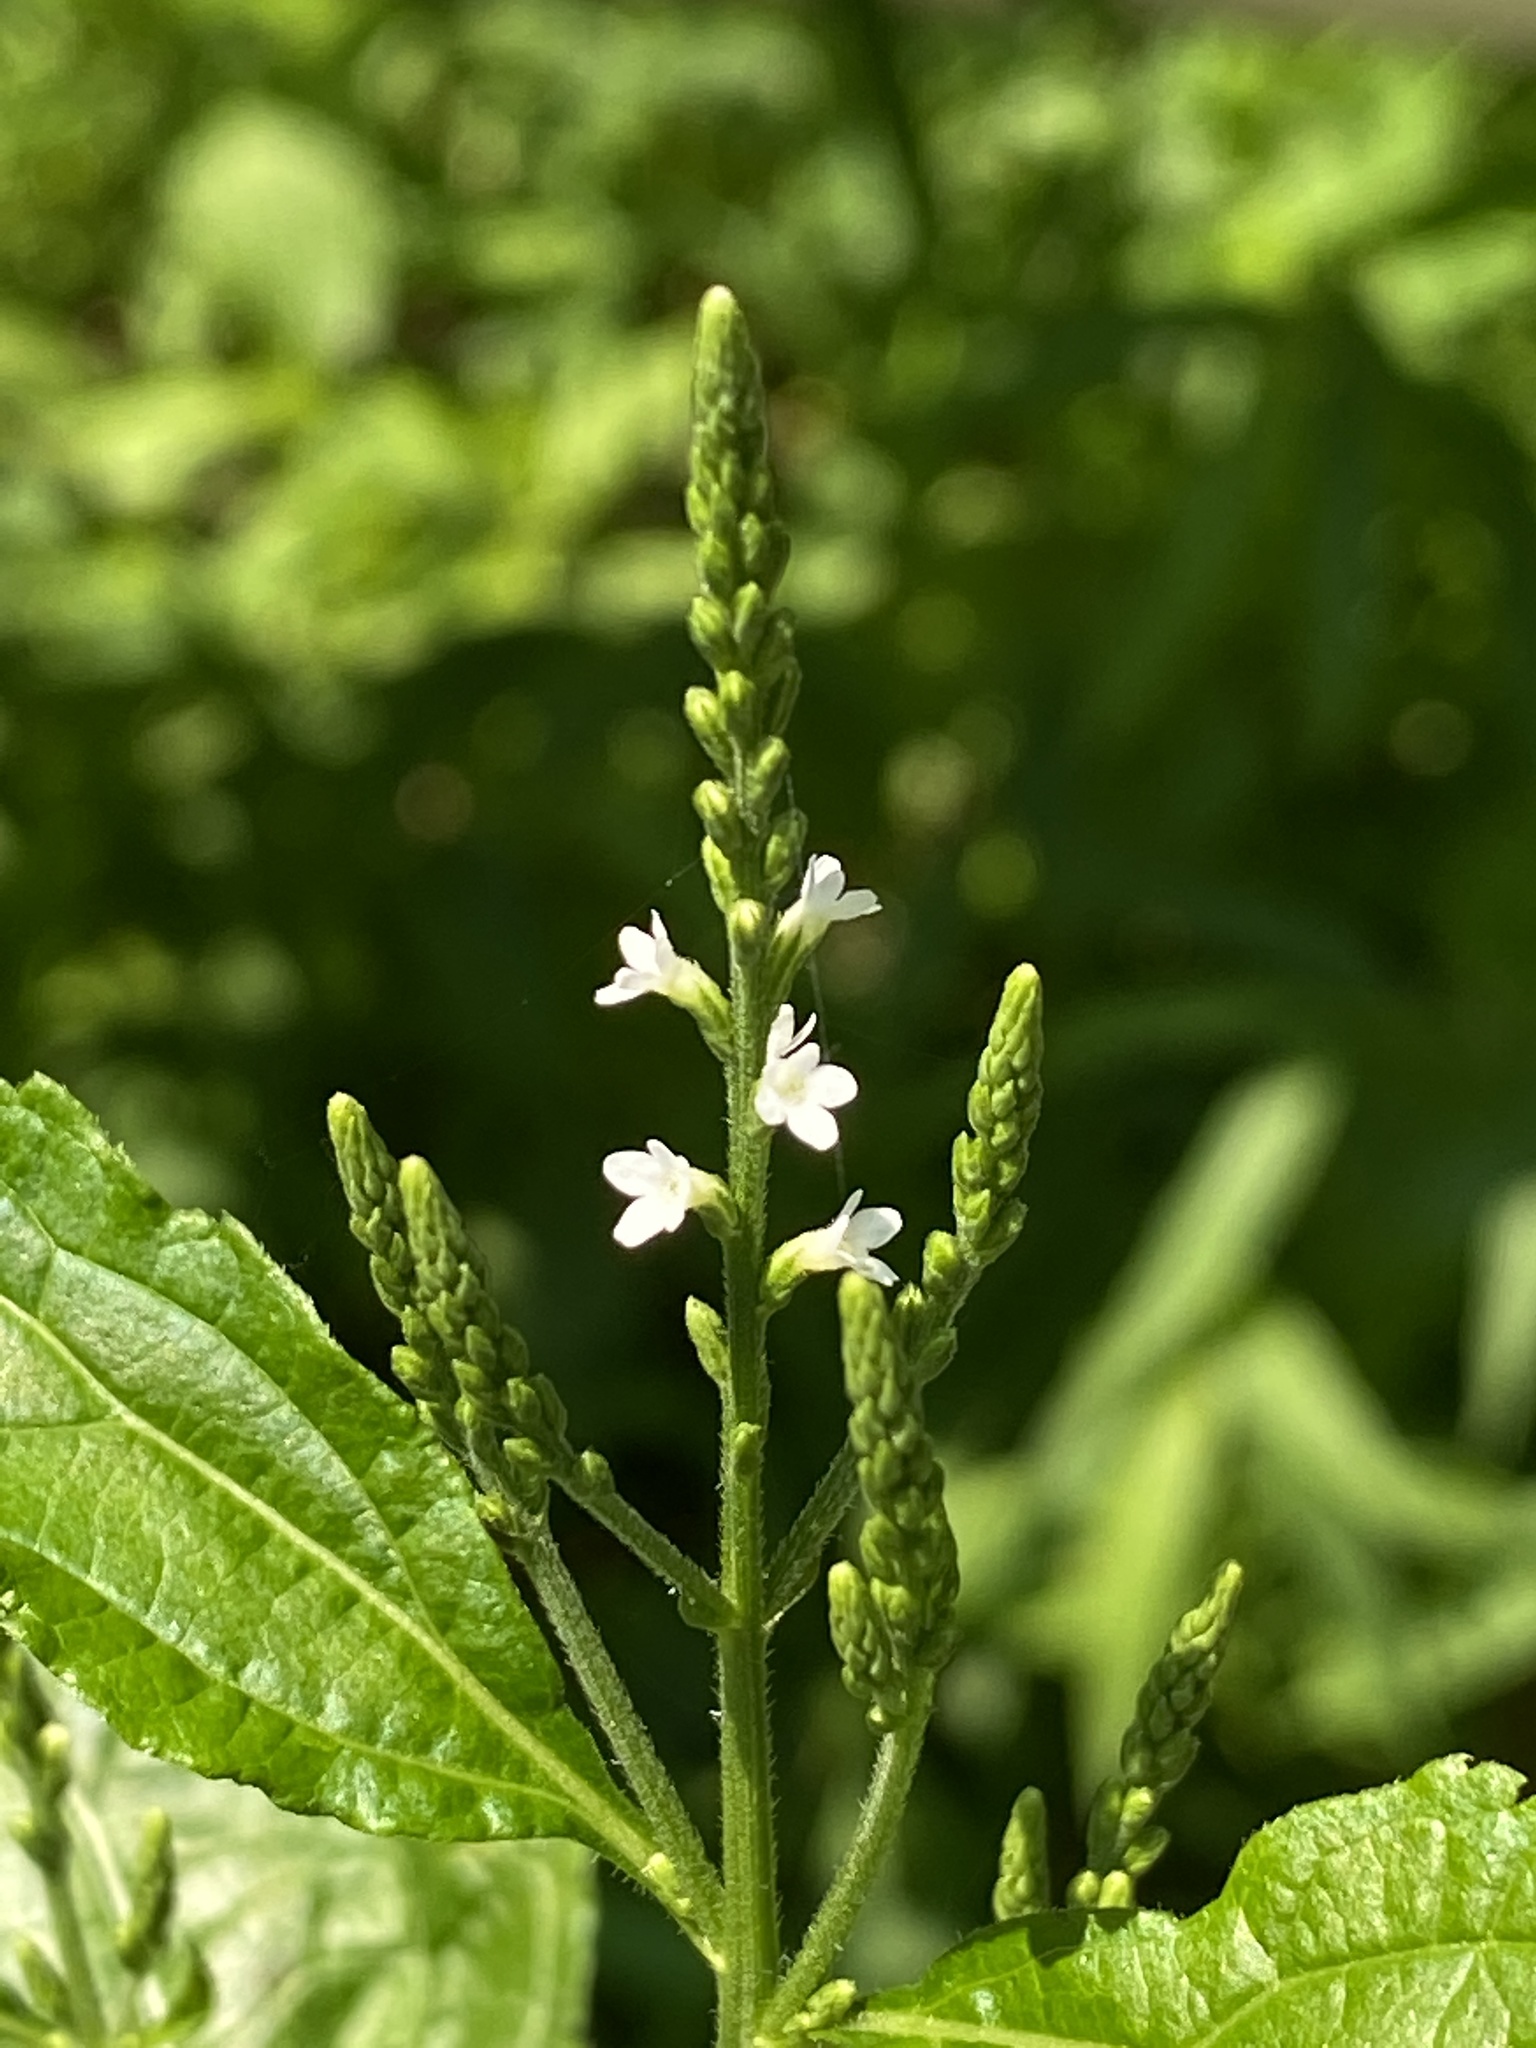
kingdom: Plantae
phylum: Tracheophyta
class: Magnoliopsida
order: Lamiales
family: Verbenaceae
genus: Verbena
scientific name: Verbena urticifolia
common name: Nettle-leaved vervain
